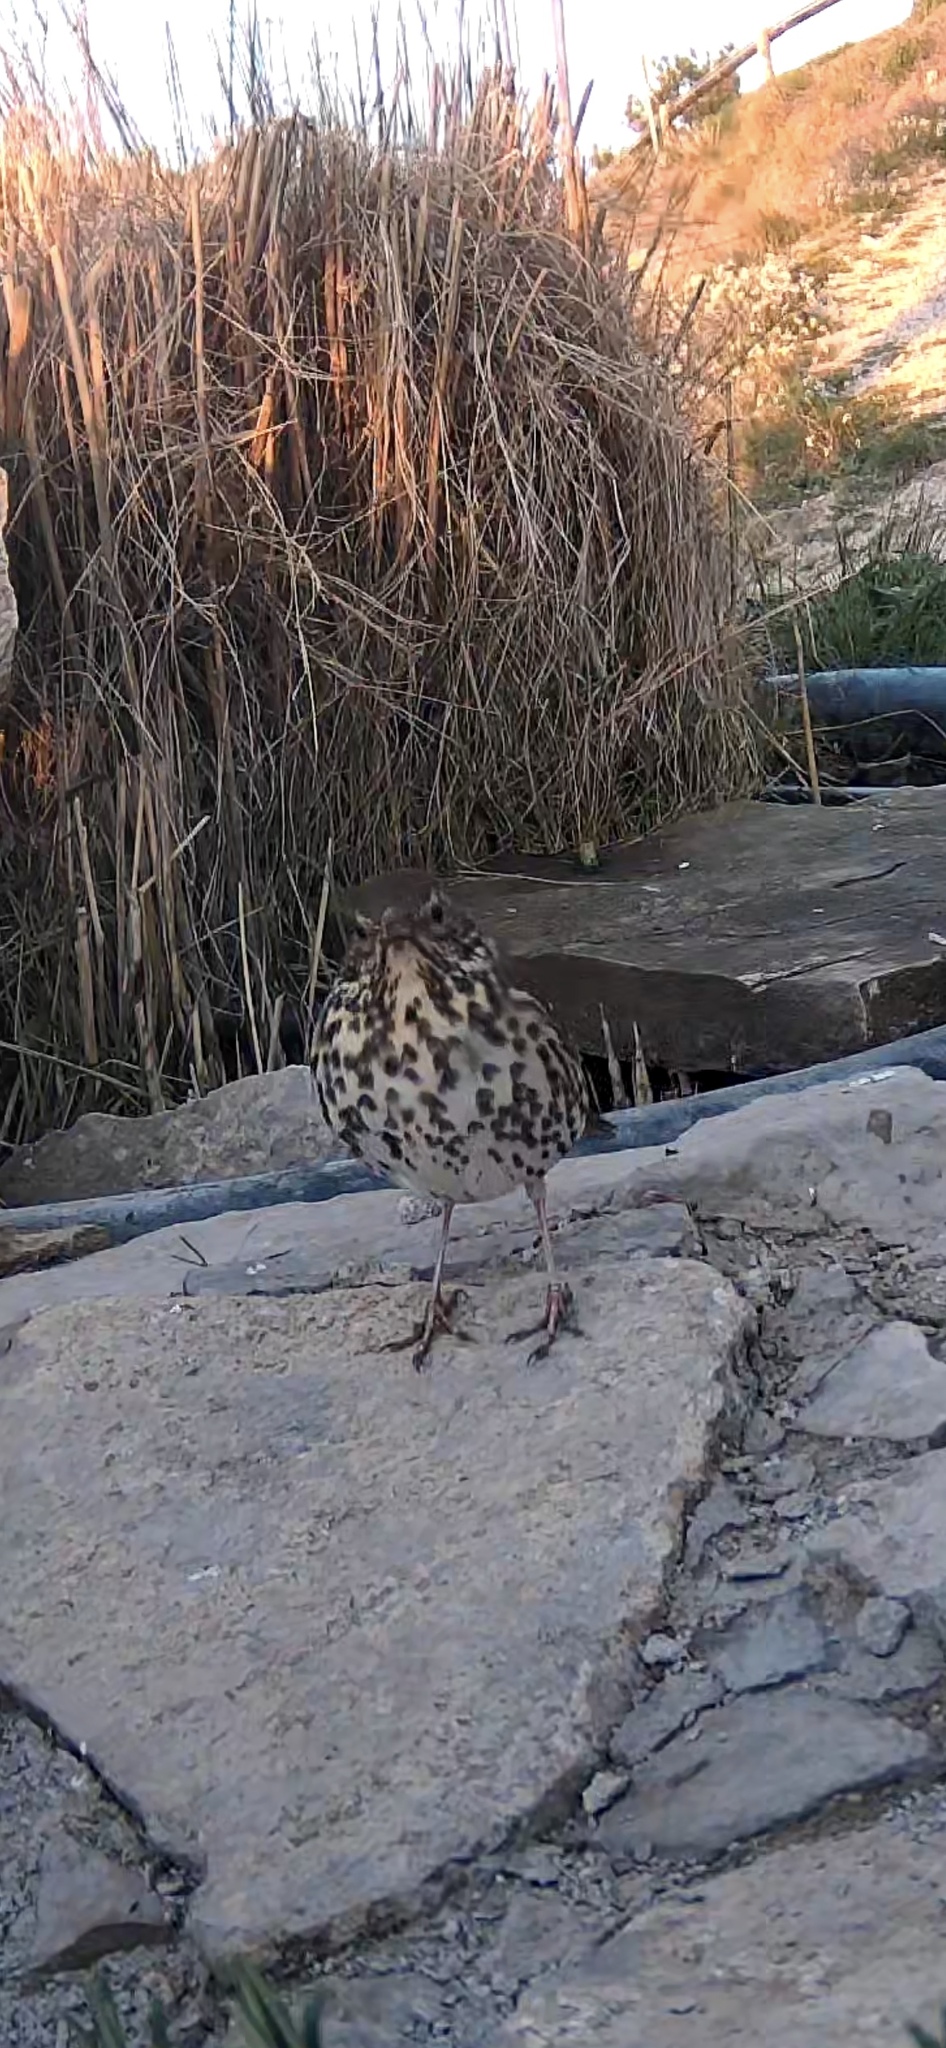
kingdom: Animalia
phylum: Chordata
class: Aves
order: Passeriformes
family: Turdidae
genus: Turdus
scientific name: Turdus philomelos
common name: Song thrush
